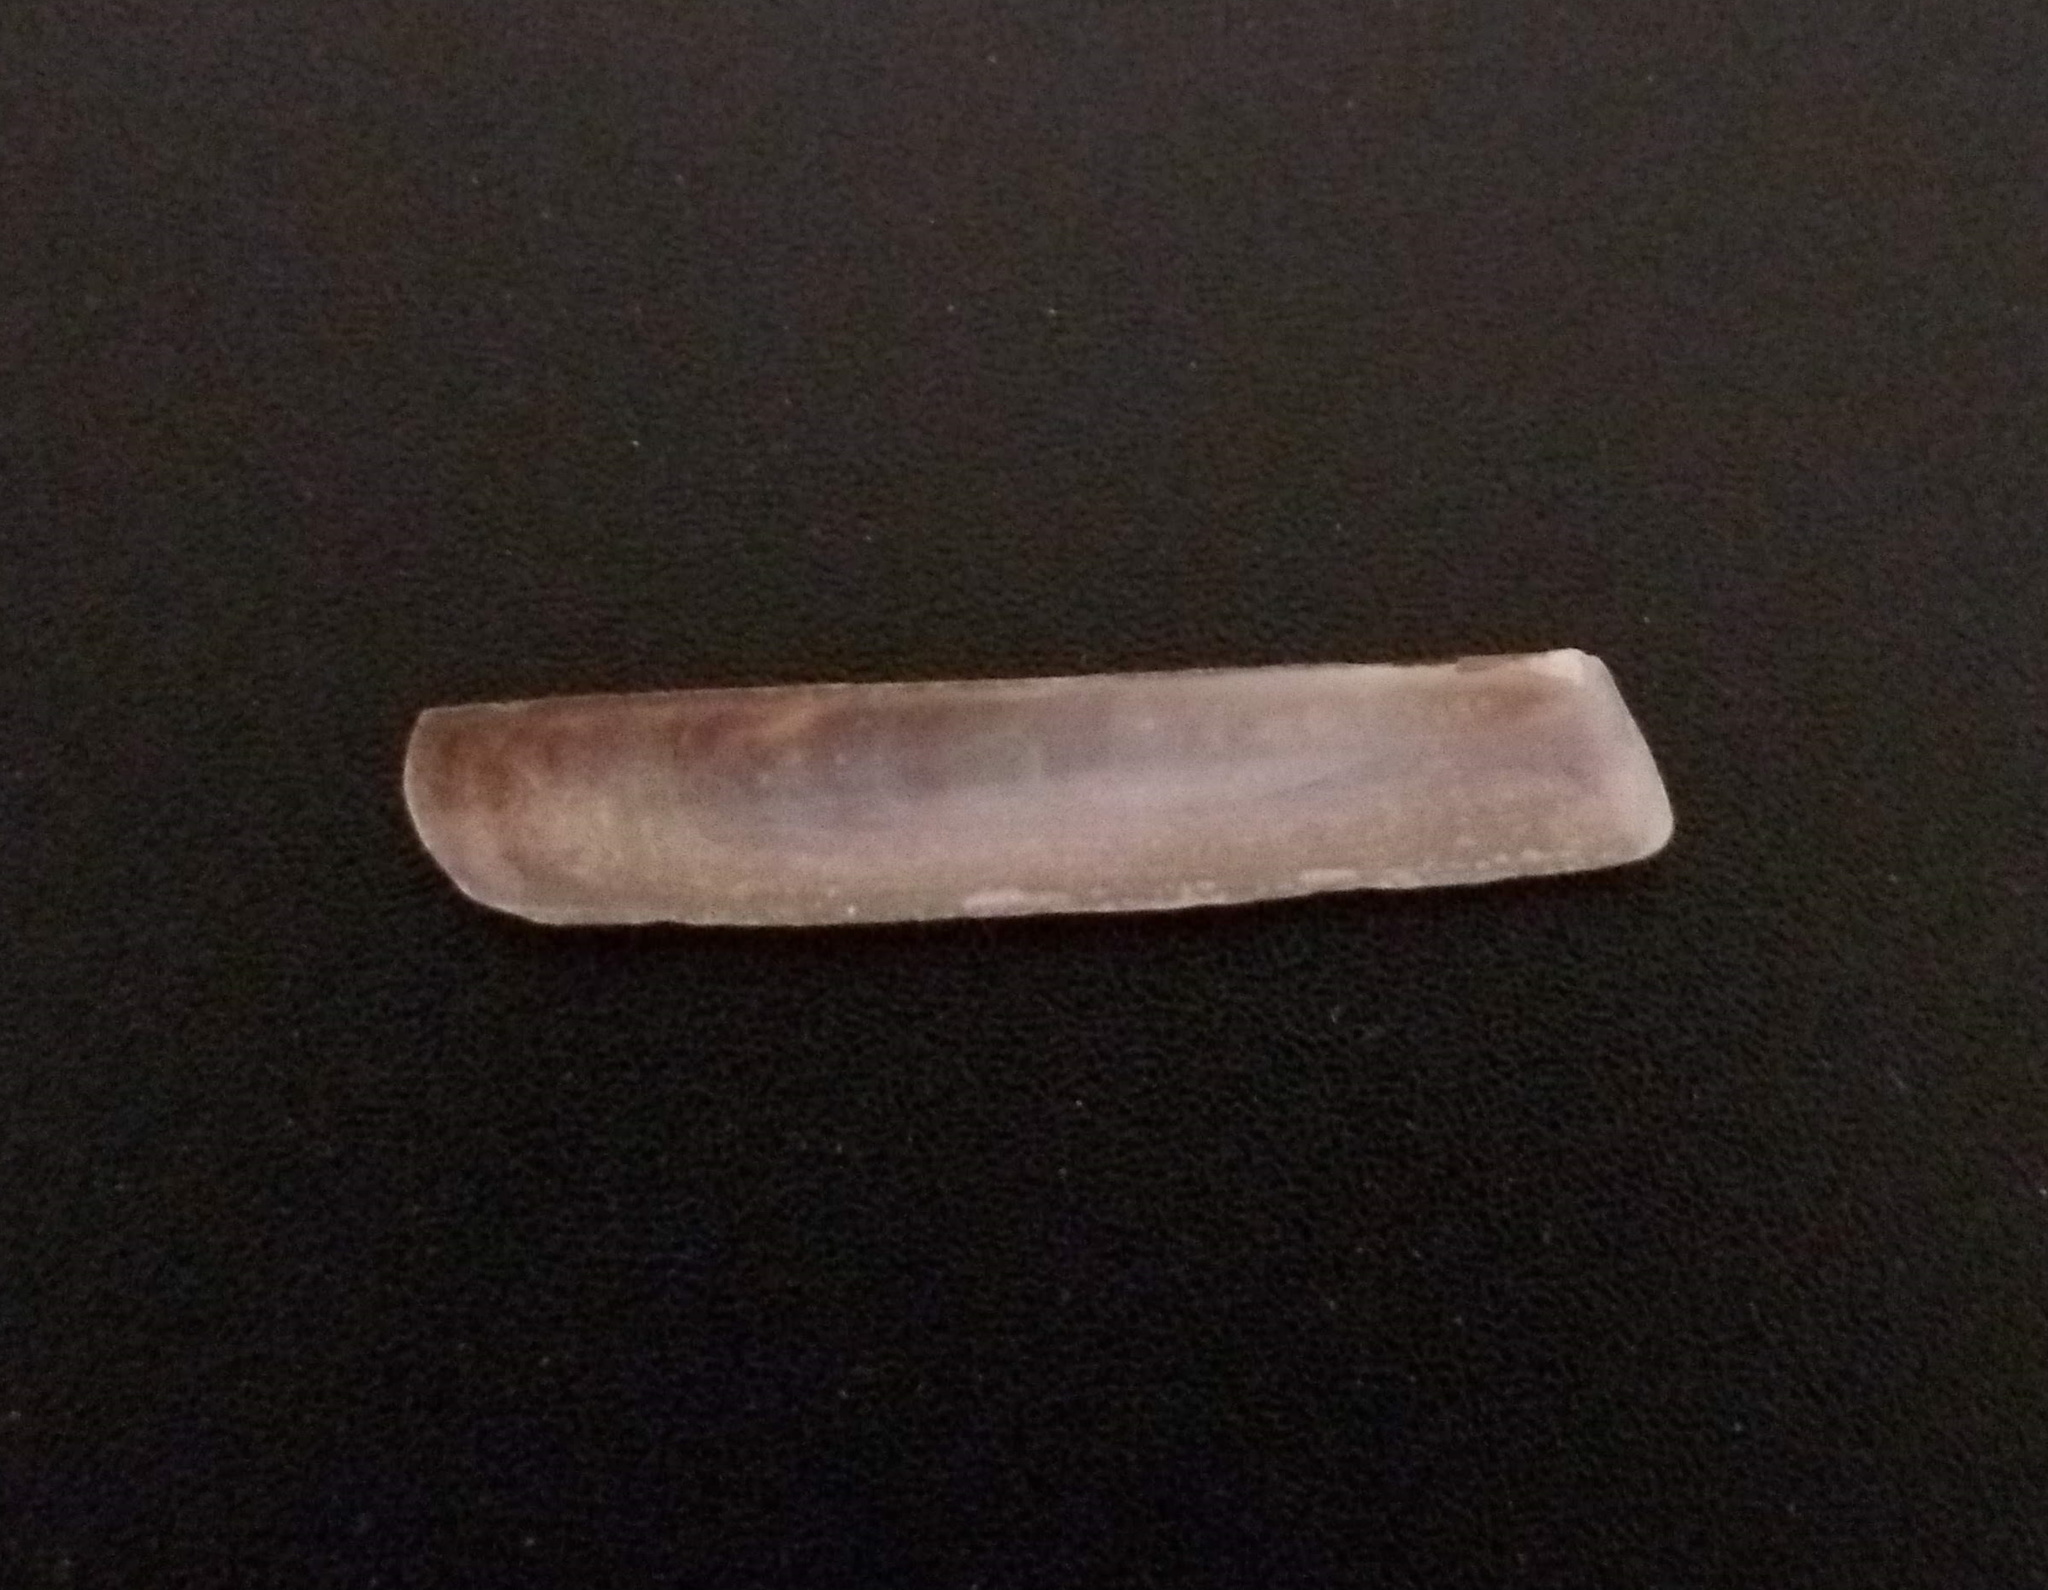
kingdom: Animalia
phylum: Mollusca
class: Bivalvia
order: Adapedonta
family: Solenidae
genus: Solena
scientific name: Solena obliqua
